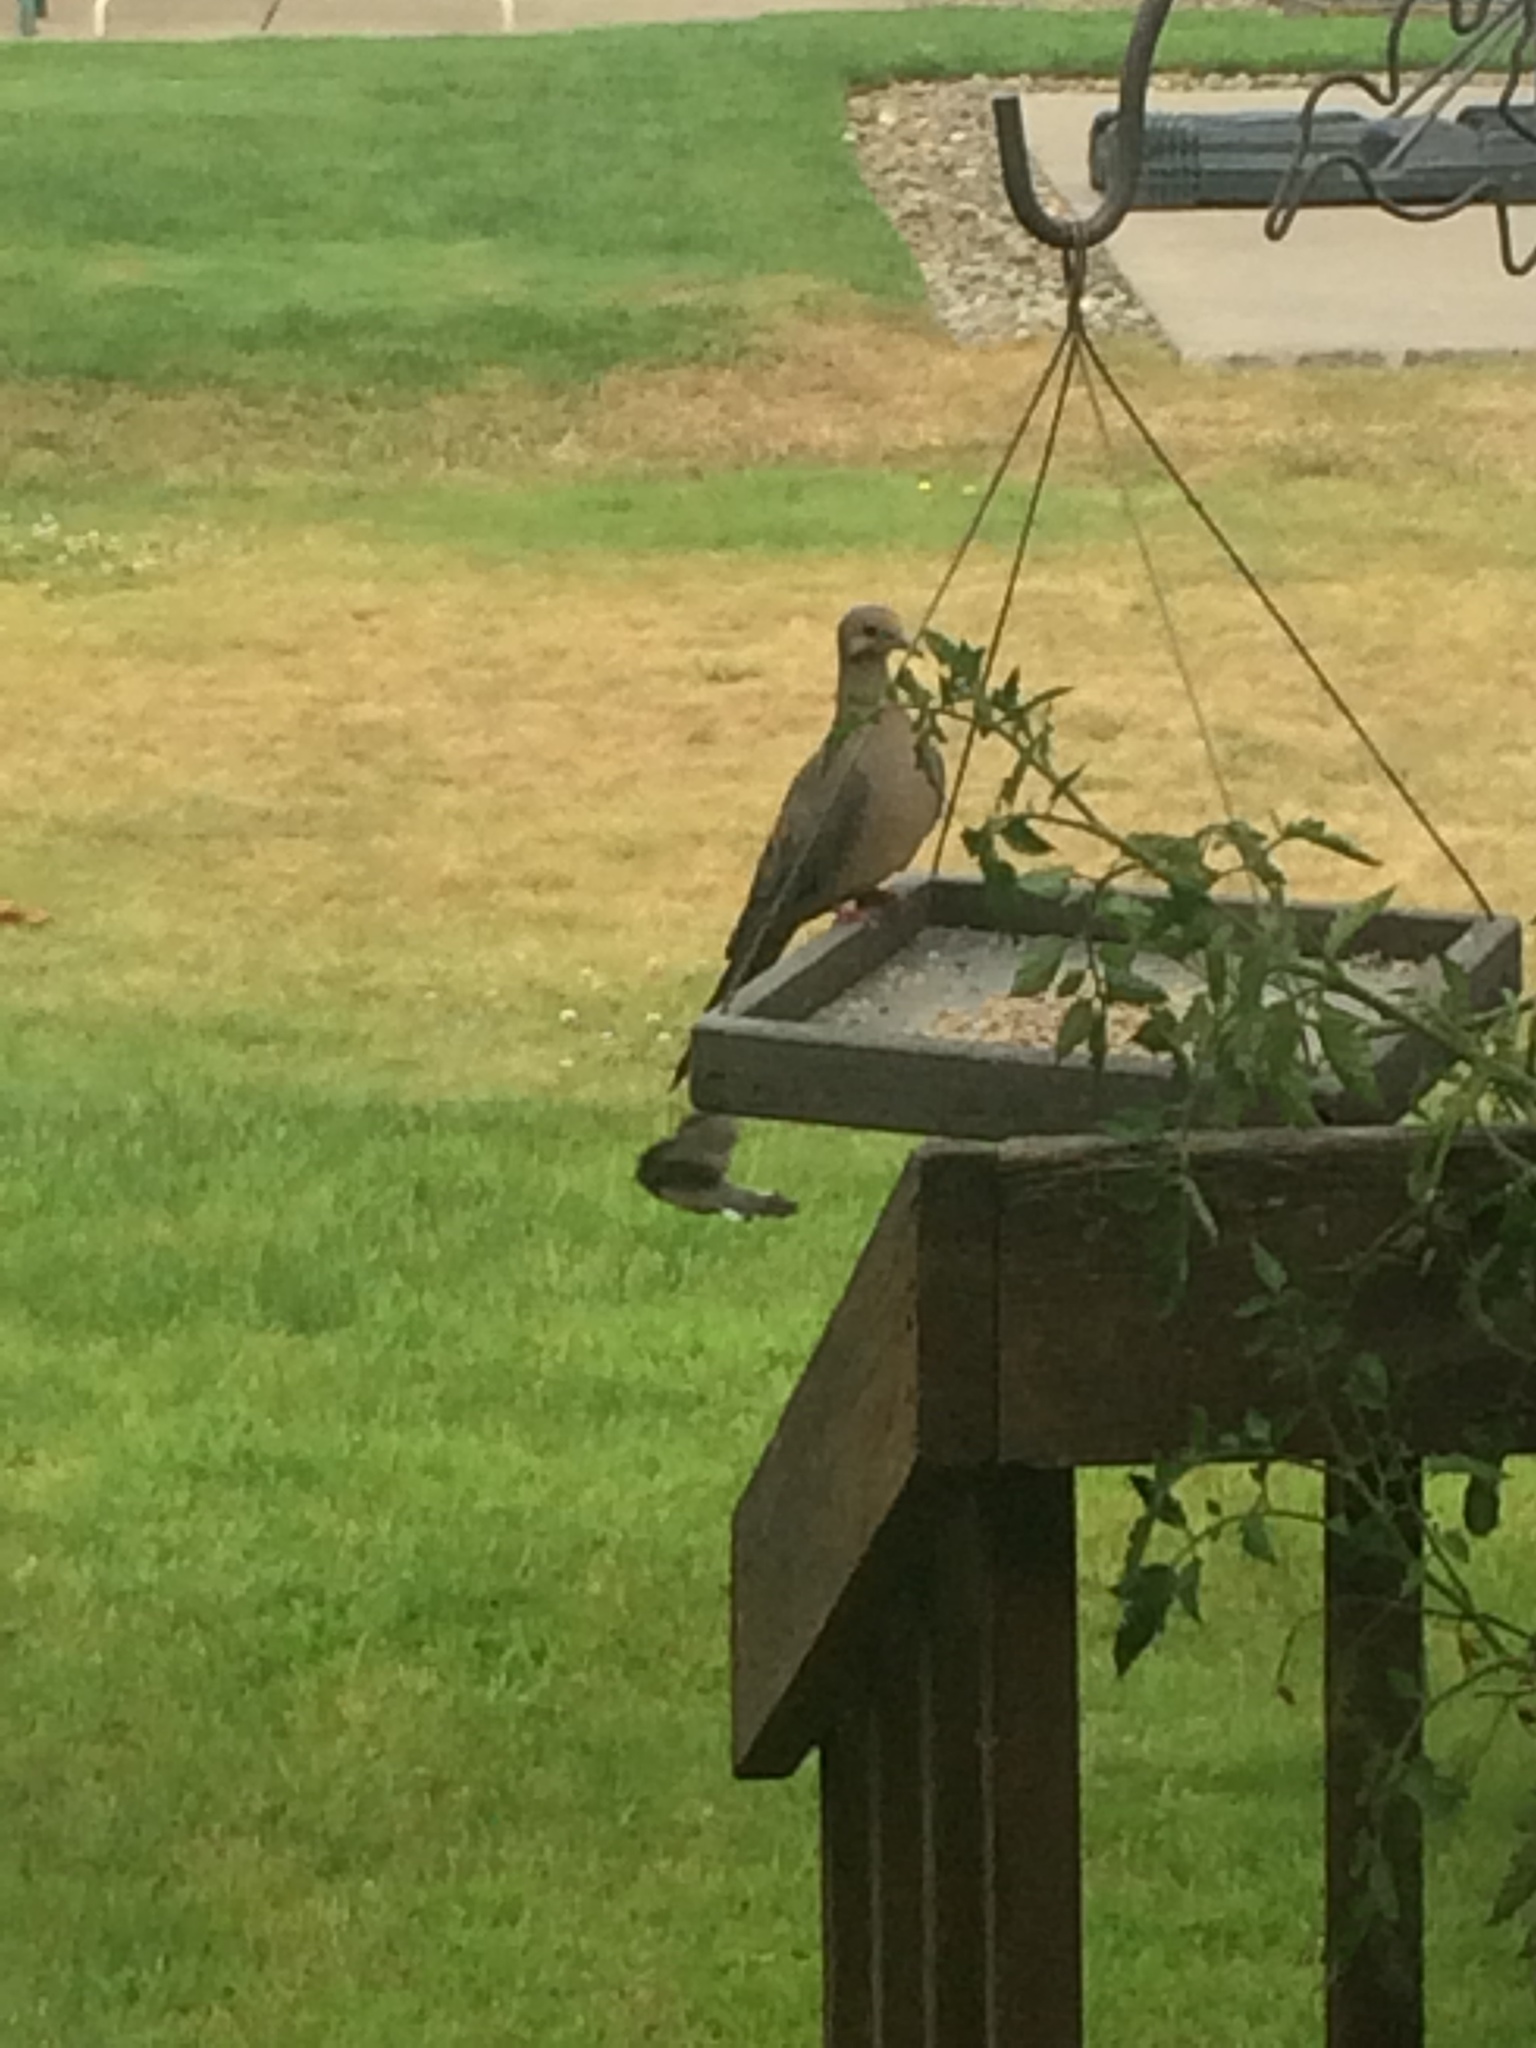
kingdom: Animalia
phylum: Chordata
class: Aves
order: Columbiformes
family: Columbidae
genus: Zenaida
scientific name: Zenaida macroura
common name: Mourning dove
